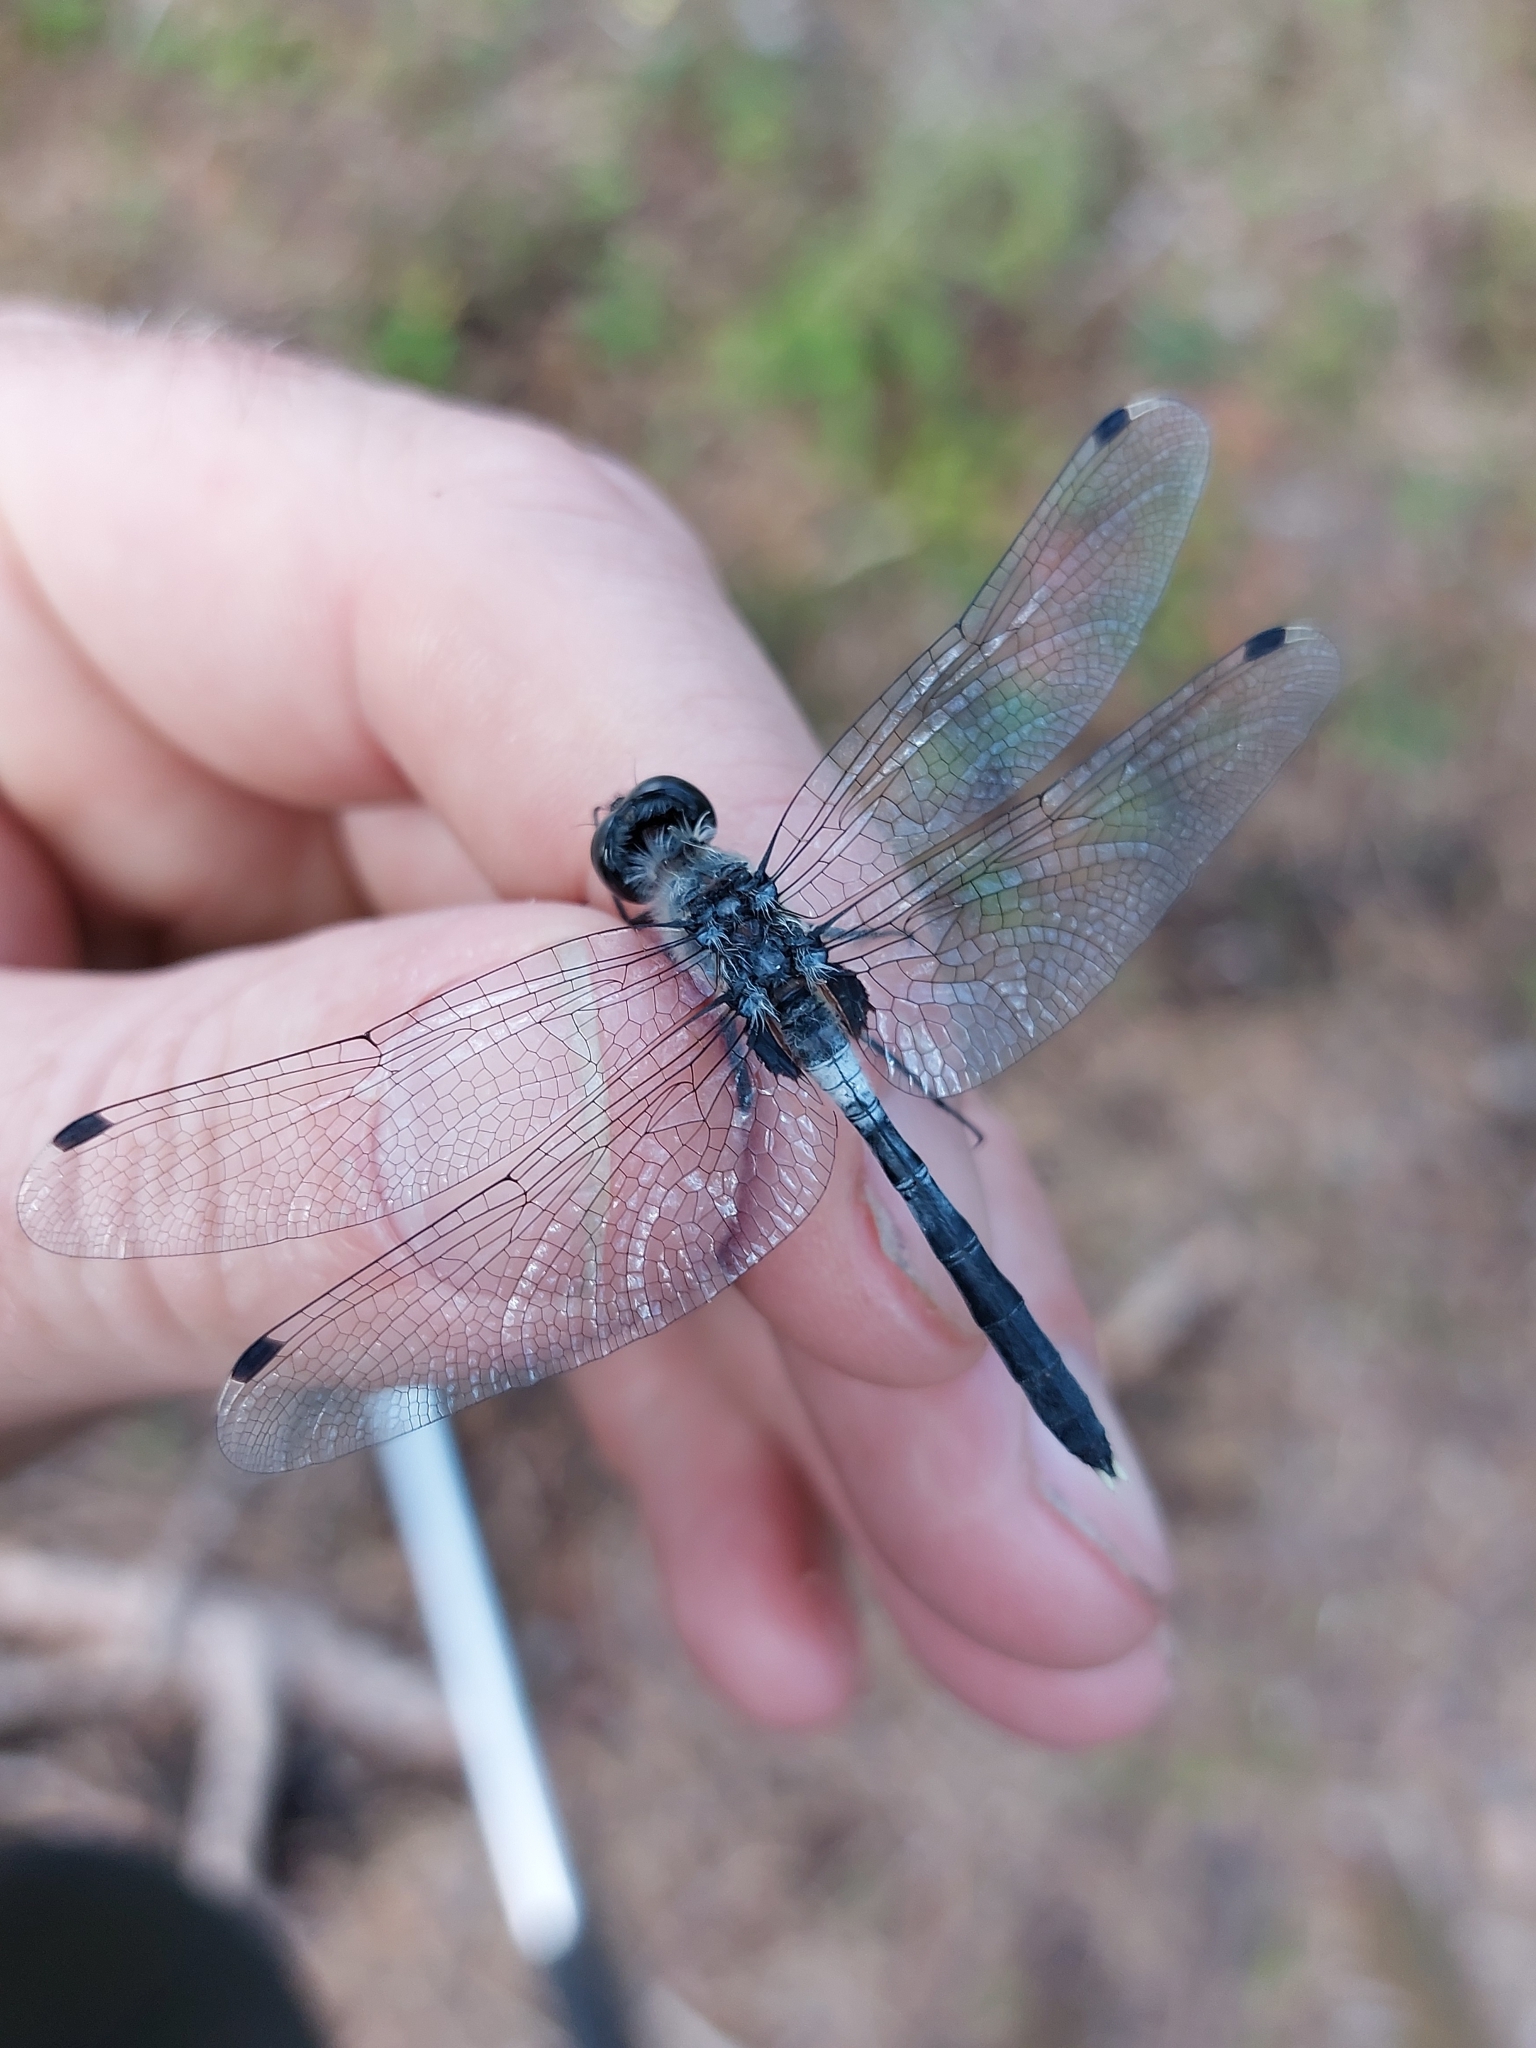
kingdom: Animalia
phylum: Arthropoda
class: Insecta
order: Odonata
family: Libellulidae
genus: Leucorrhinia
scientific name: Leucorrhinia albifrons
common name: Dark whiteface
